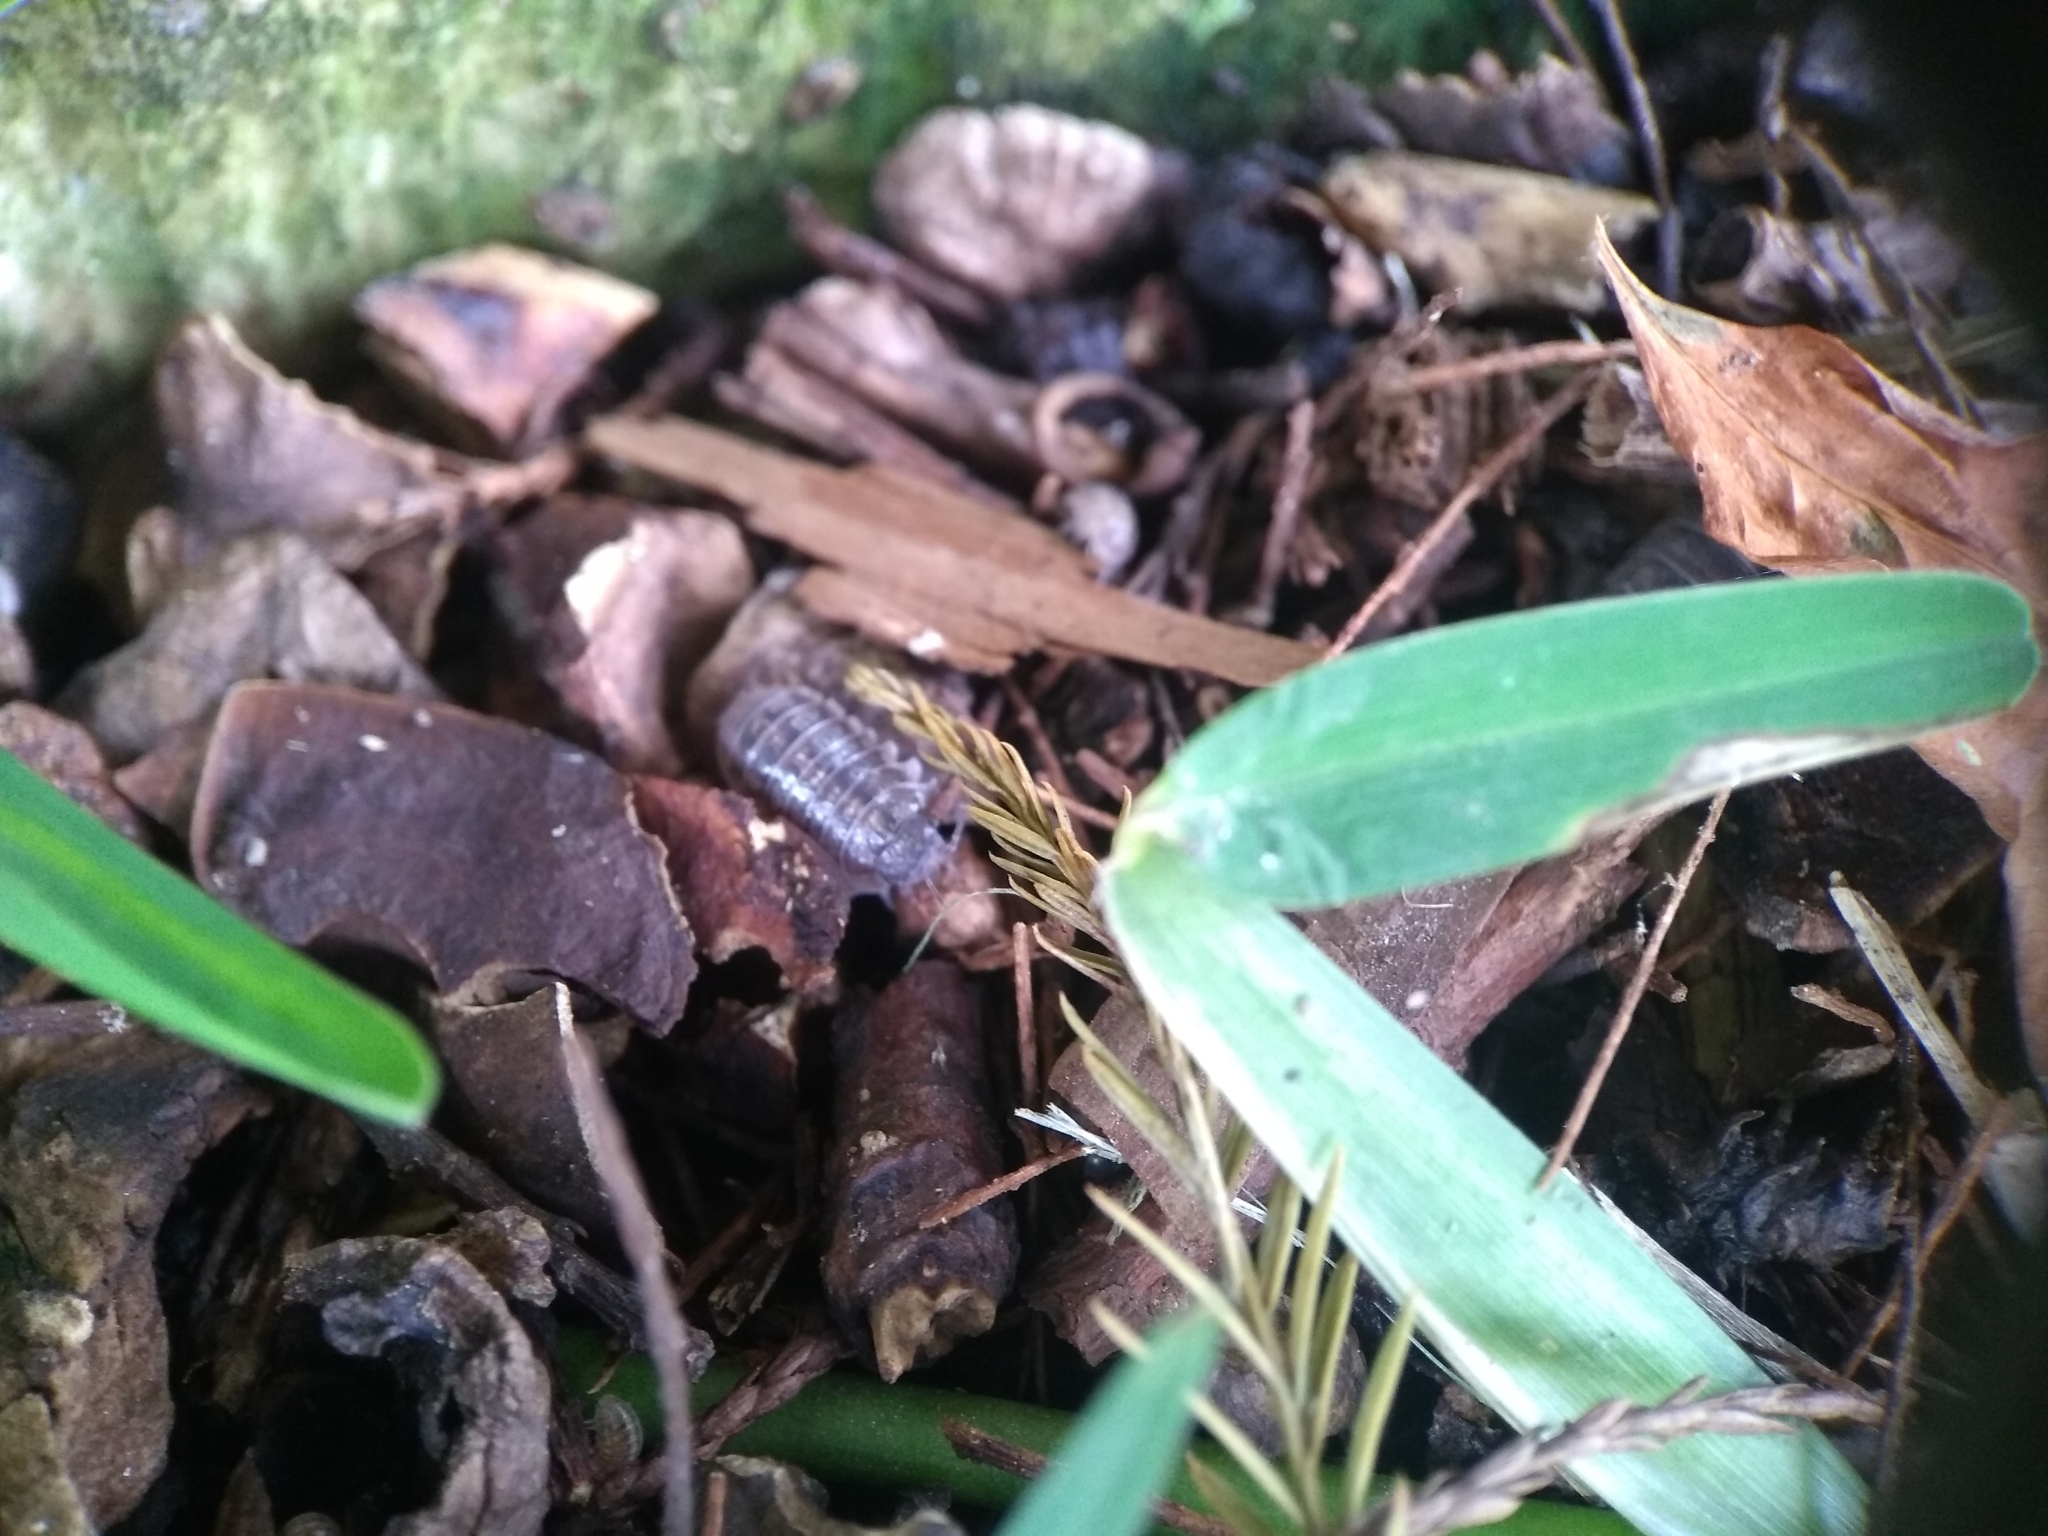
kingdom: Animalia
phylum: Arthropoda
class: Malacostraca
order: Isopoda
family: Armadillidiidae
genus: Armadillidium
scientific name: Armadillidium vulgare
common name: Common pill woodlouse
